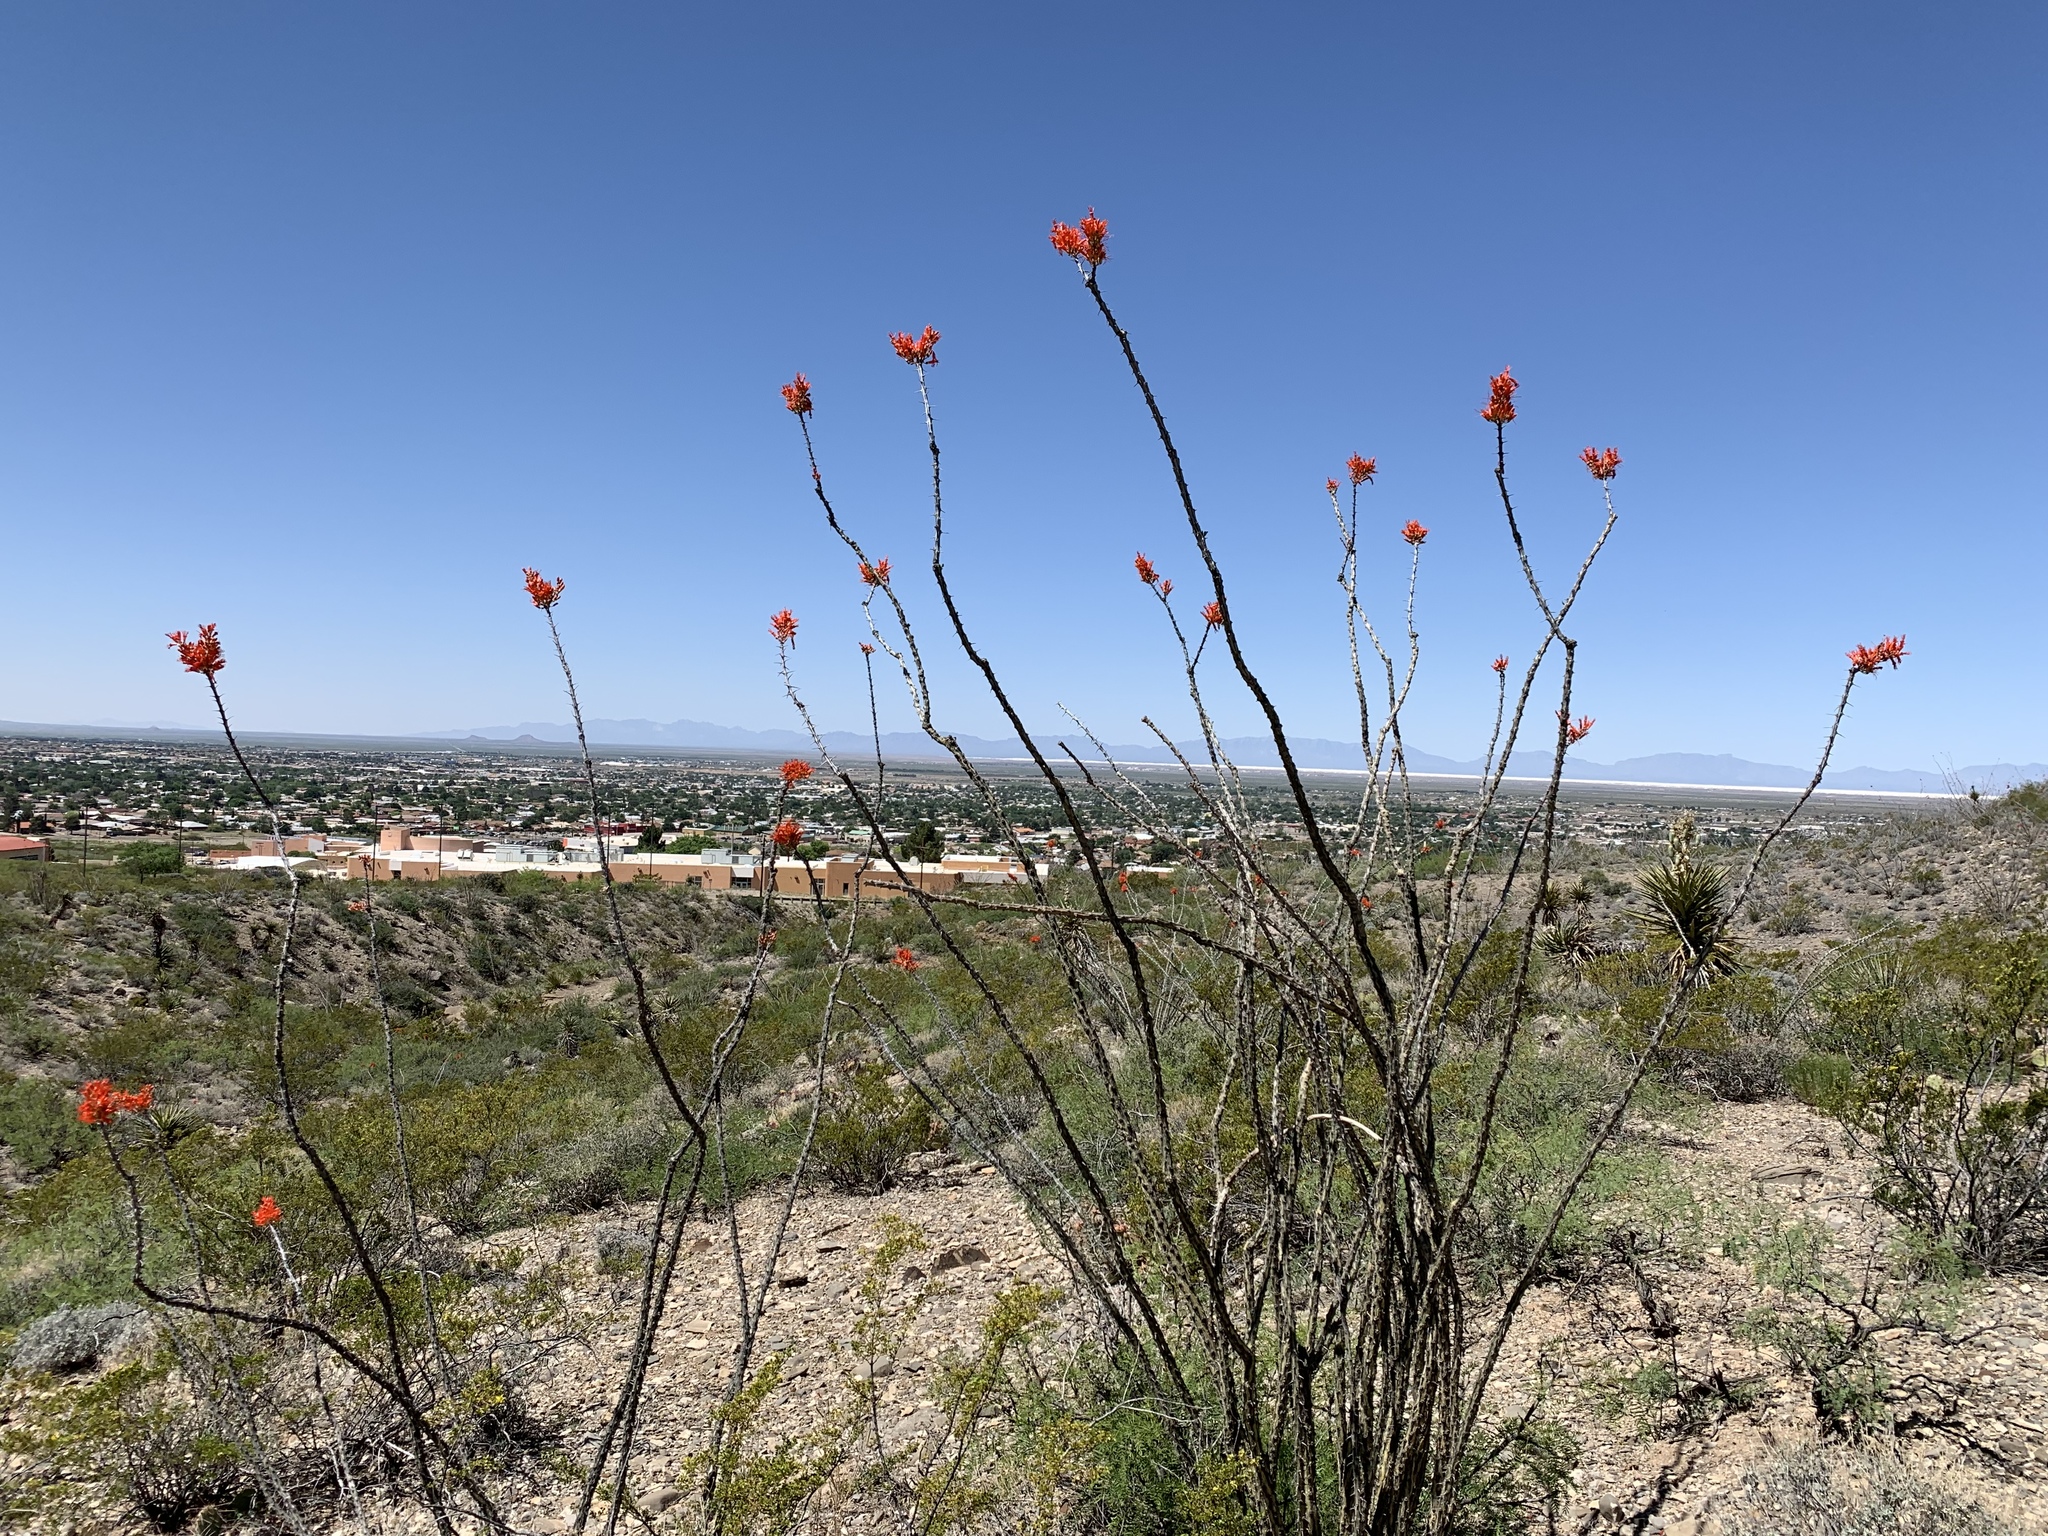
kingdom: Plantae
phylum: Tracheophyta
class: Magnoliopsida
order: Ericales
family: Fouquieriaceae
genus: Fouquieria
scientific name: Fouquieria splendens
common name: Vine-cactus
